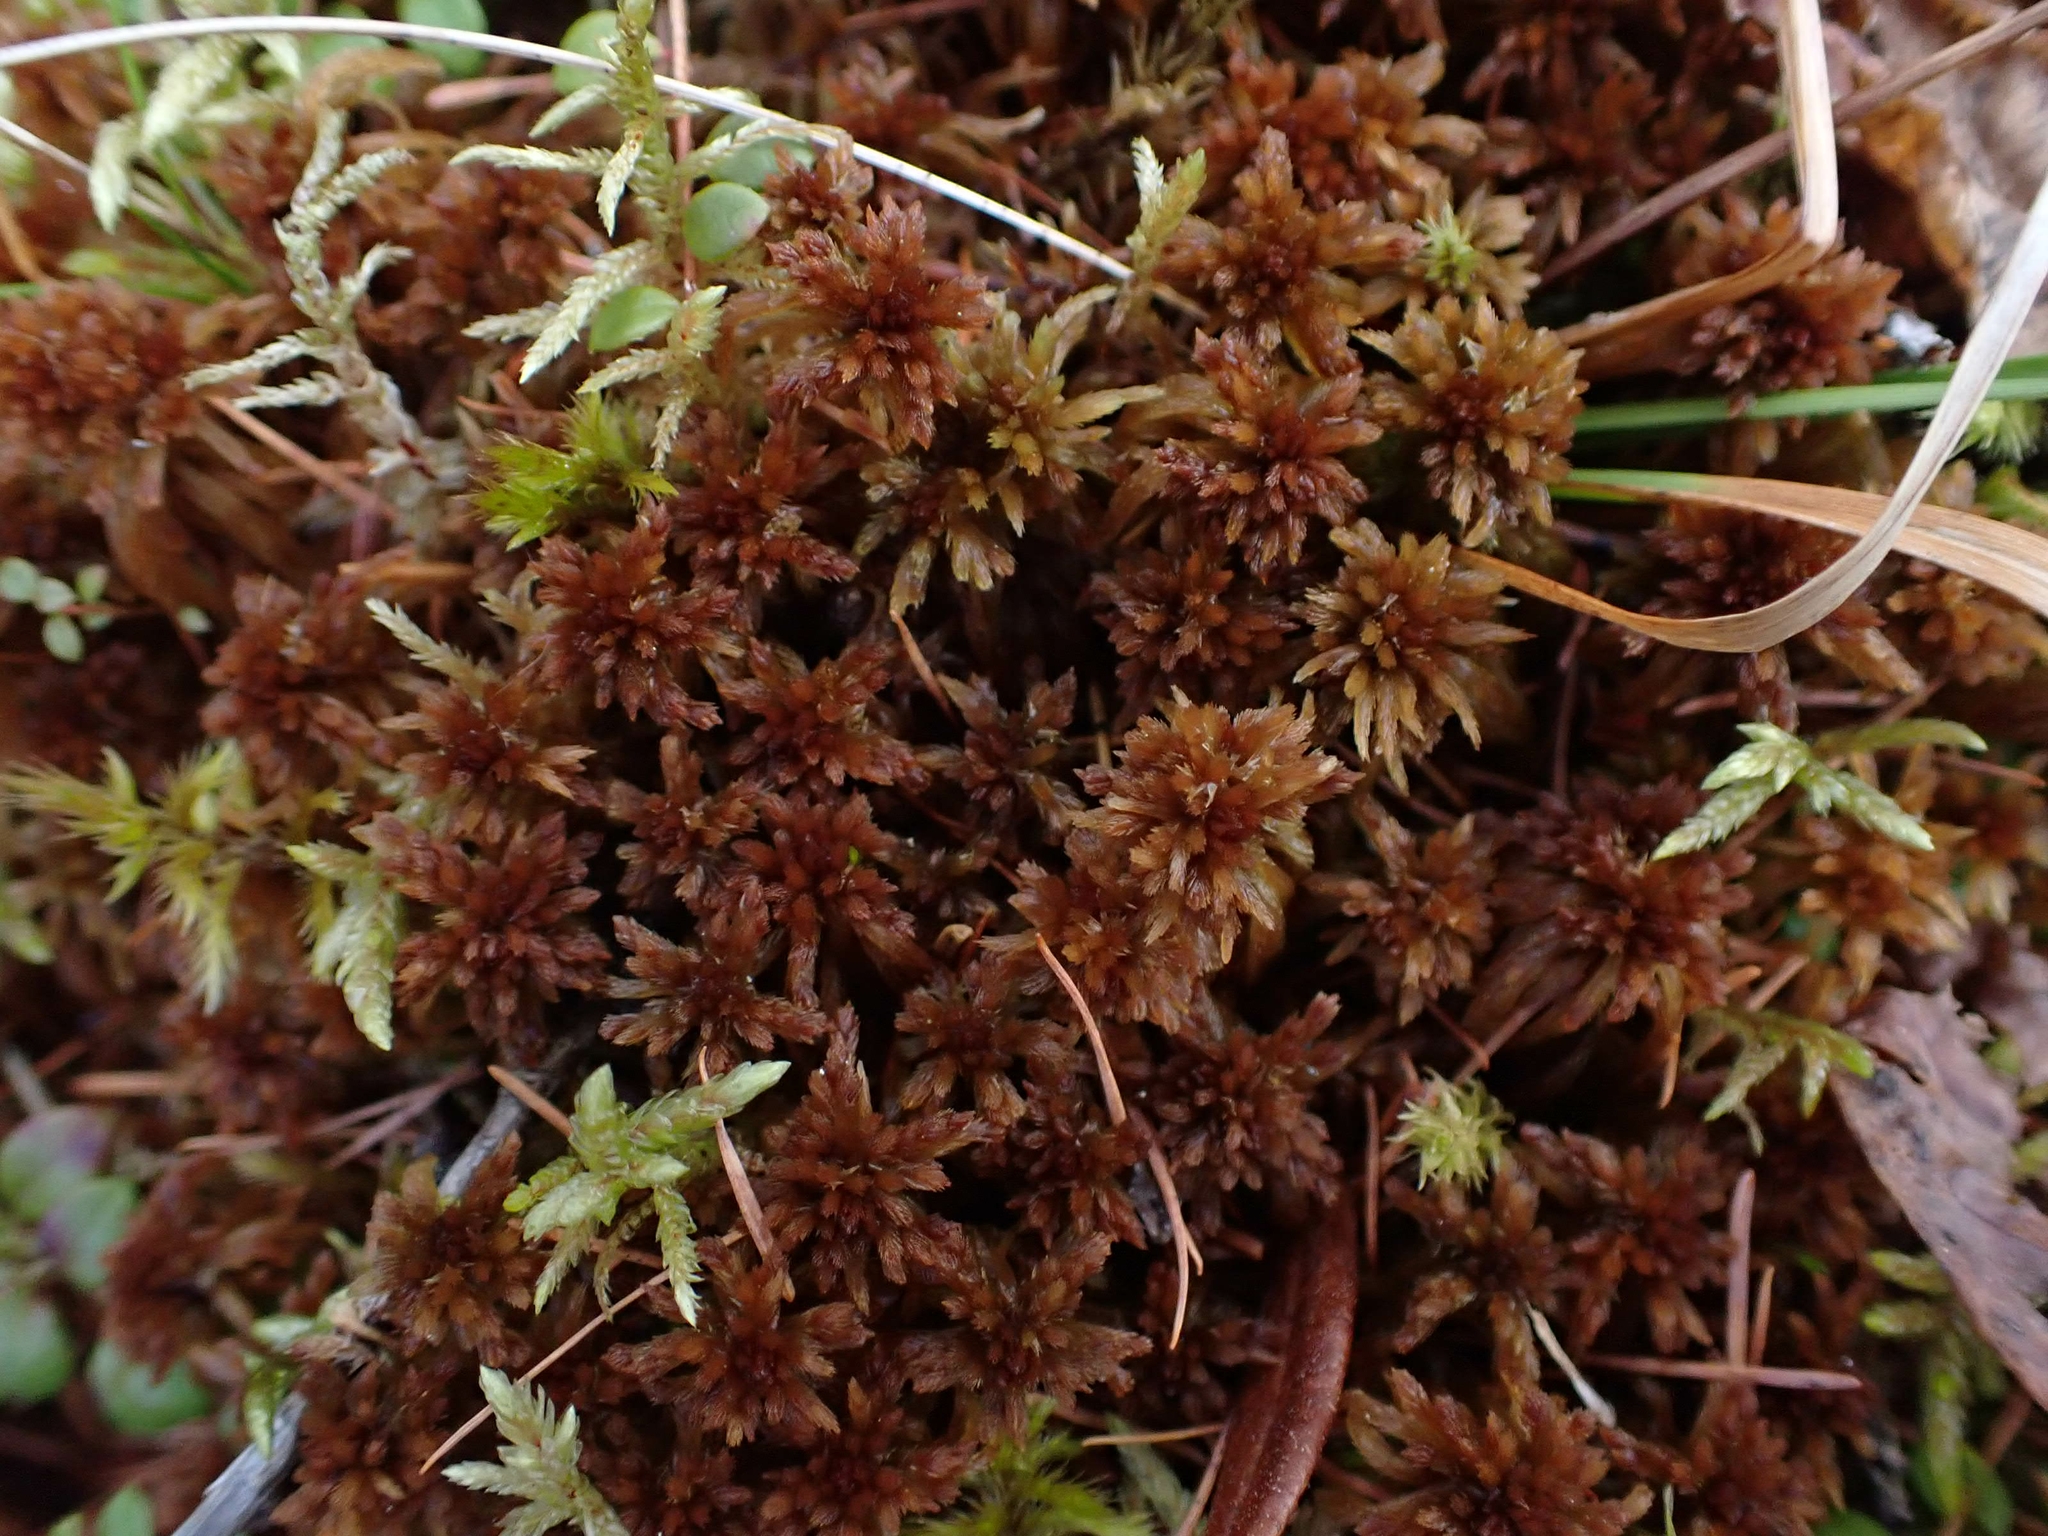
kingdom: Plantae
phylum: Bryophyta
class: Sphagnopsida
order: Sphagnales
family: Sphagnaceae
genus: Sphagnum
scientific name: Sphagnum fuscum
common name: Brown peat moss
